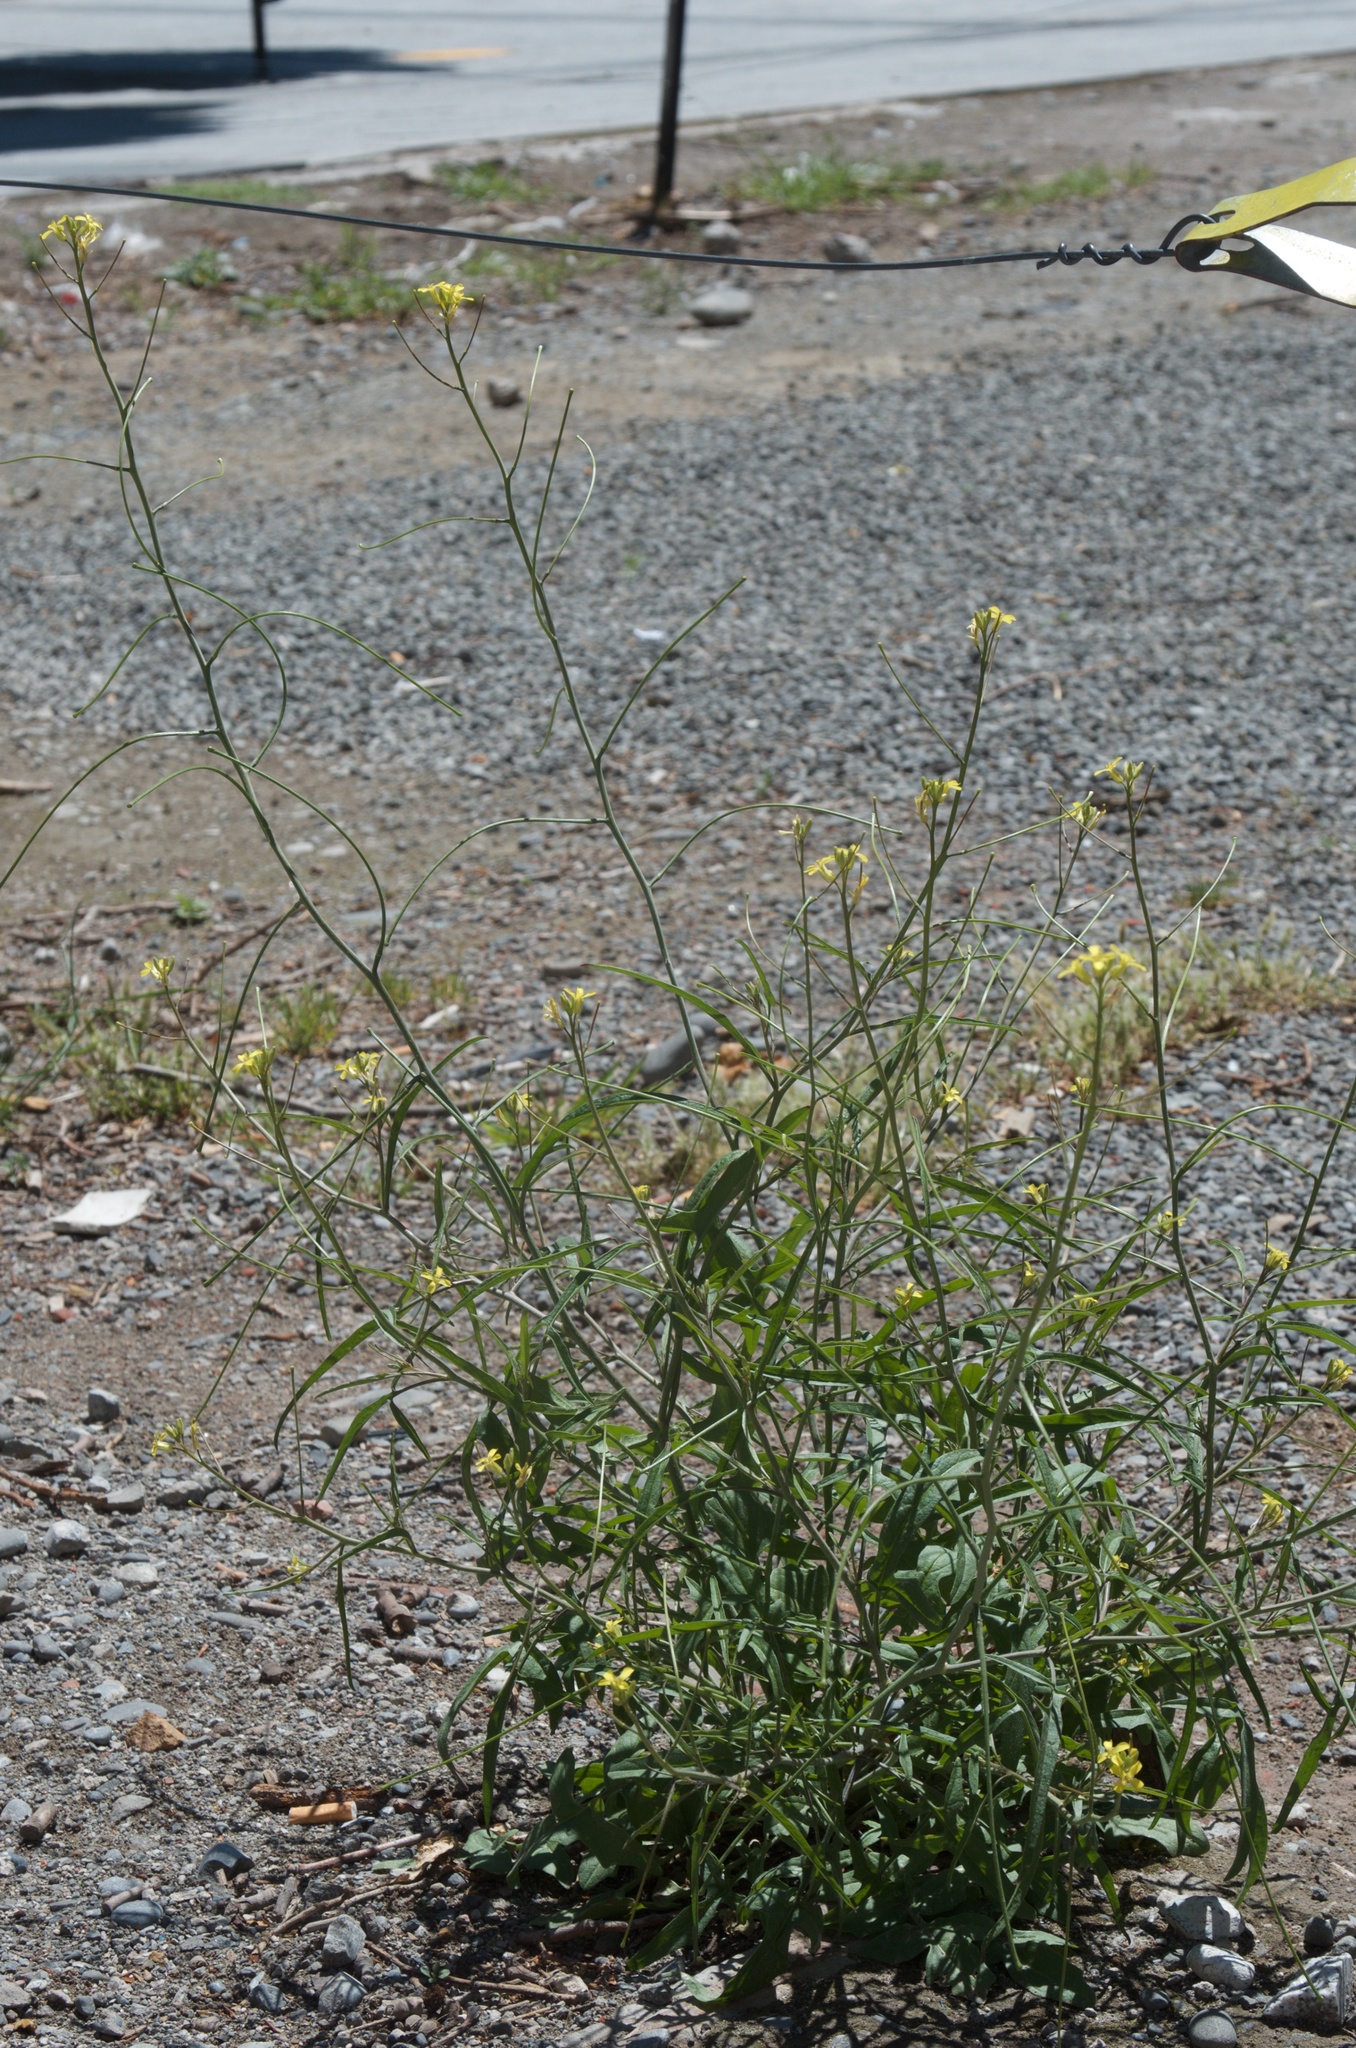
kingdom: Plantae
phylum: Tracheophyta
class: Magnoliopsida
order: Brassicales
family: Brassicaceae
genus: Sisymbrium
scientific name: Sisymbrium orientale
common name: Eastern rocket
